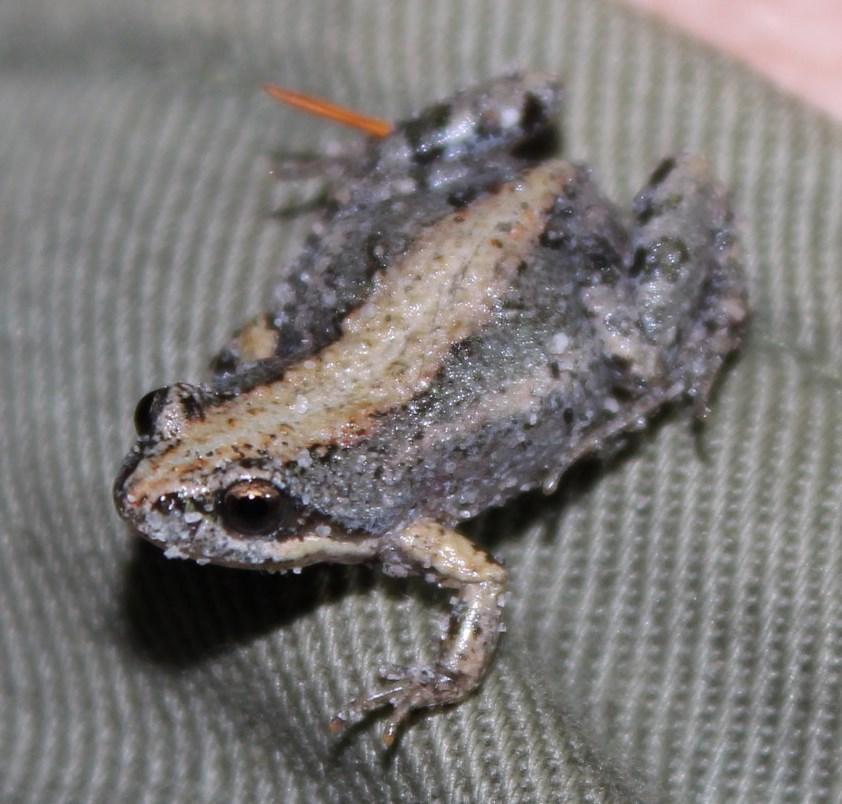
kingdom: Animalia
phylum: Chordata
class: Amphibia
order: Anura
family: Pyxicephalidae
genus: Cacosternum
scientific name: Cacosternum australis
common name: Southern dainty frog
